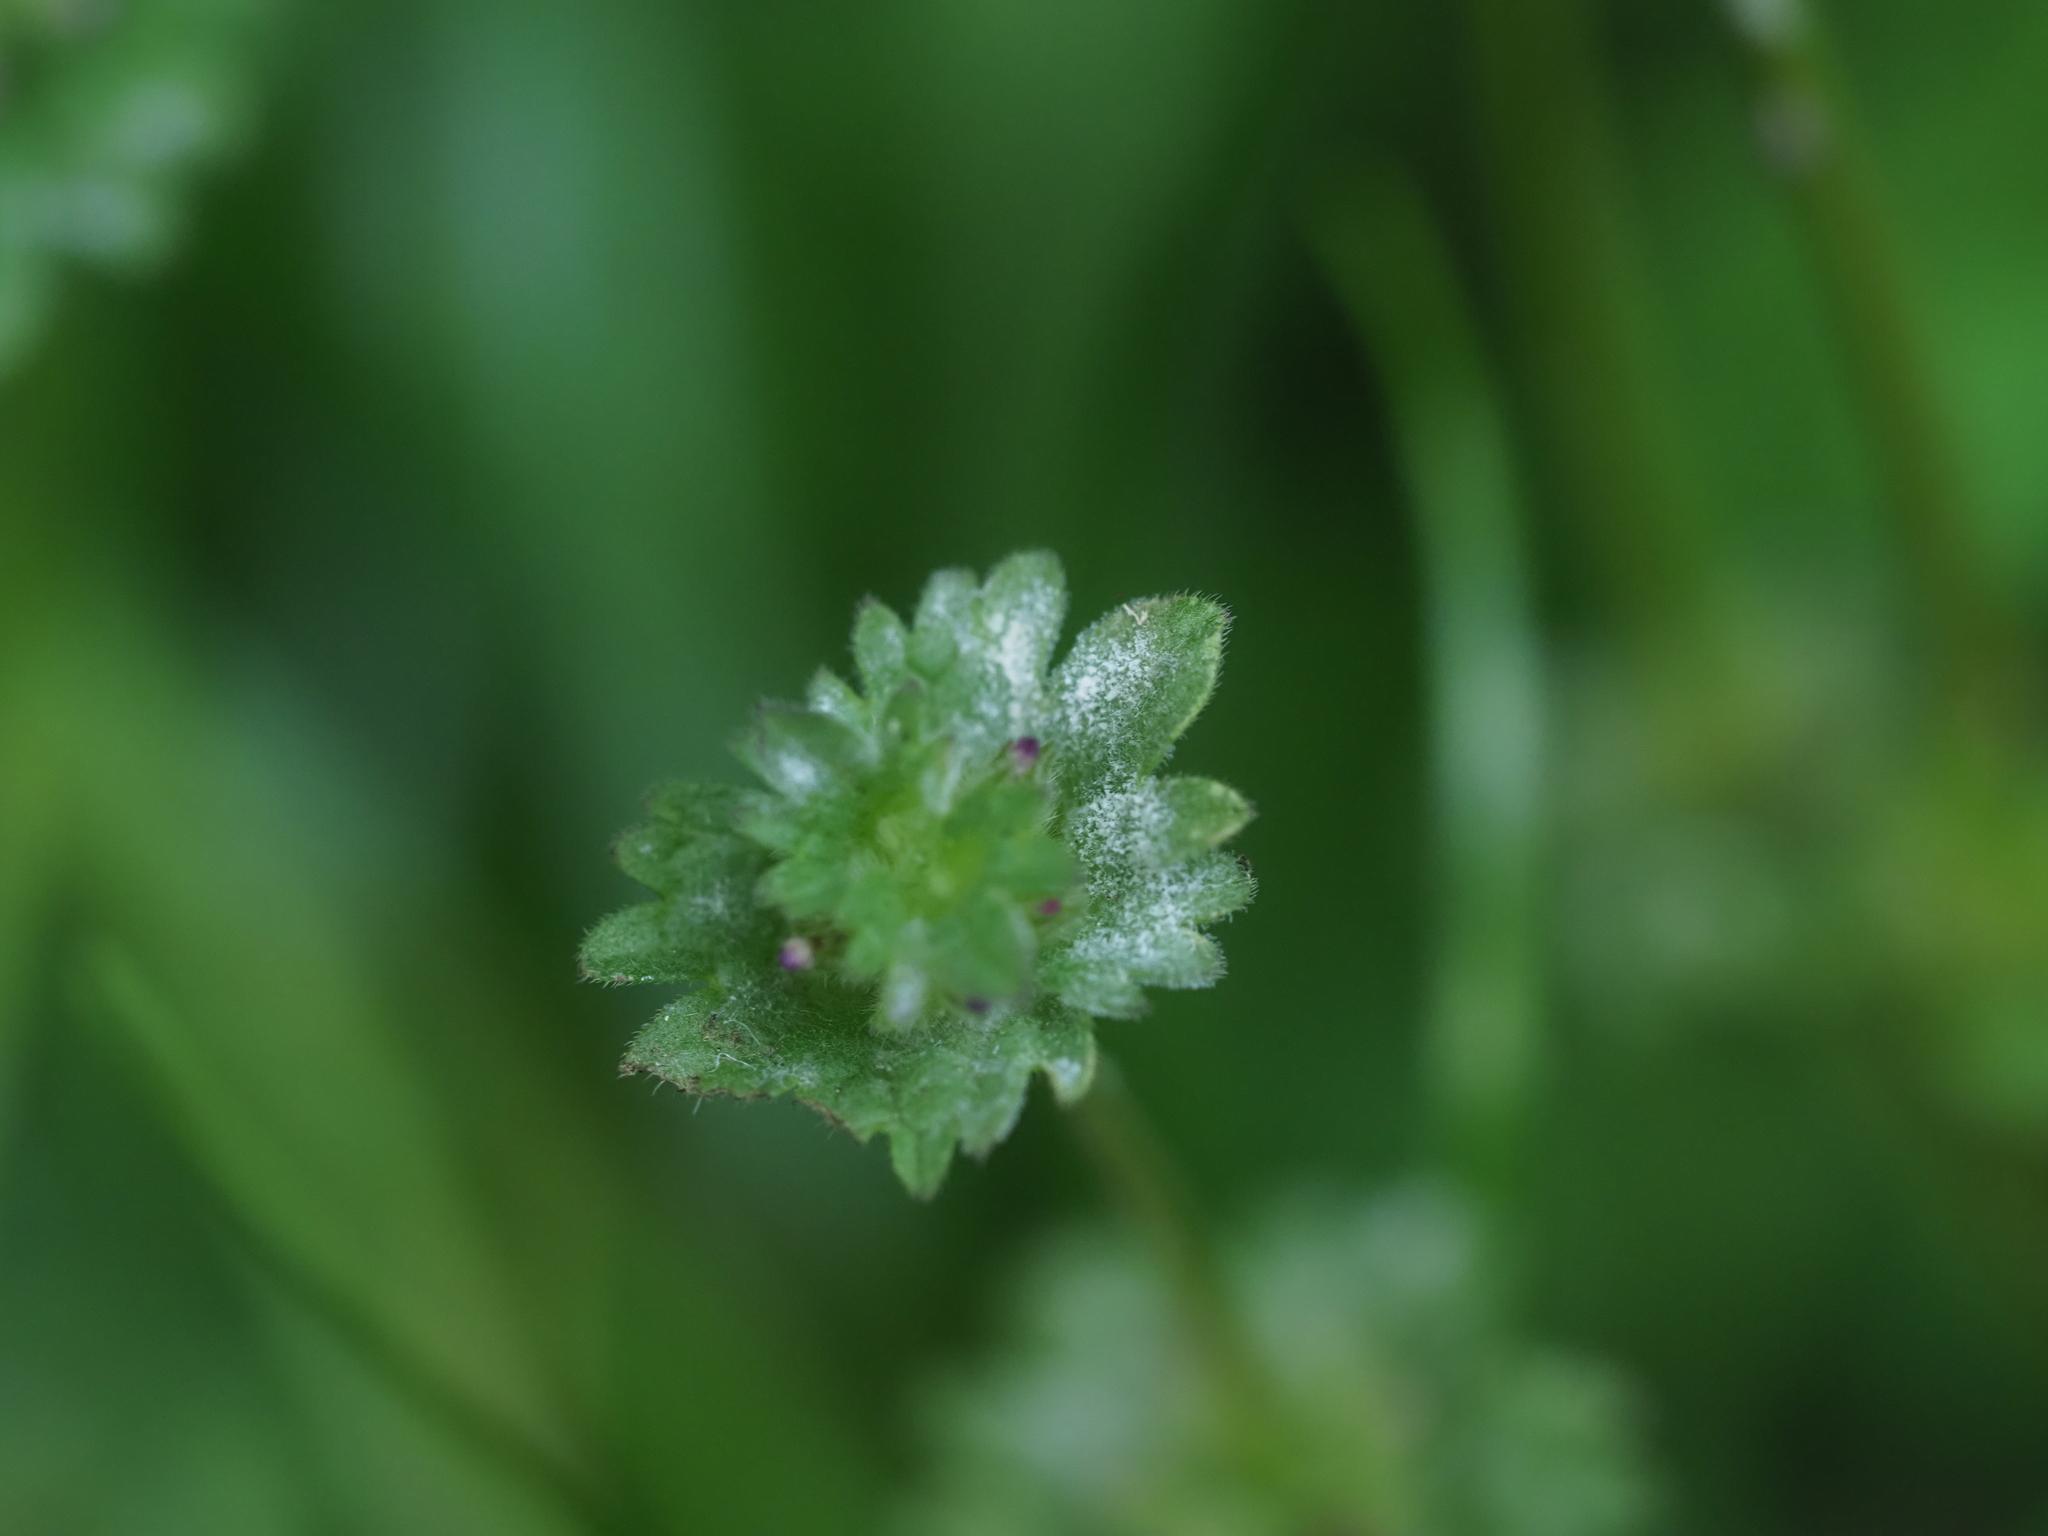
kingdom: Fungi
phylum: Ascomycota
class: Leotiomycetes
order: Helotiales
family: Erysiphaceae
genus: Neoerysiphe
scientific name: Neoerysiphe galeopsidis
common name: Mint mildew
